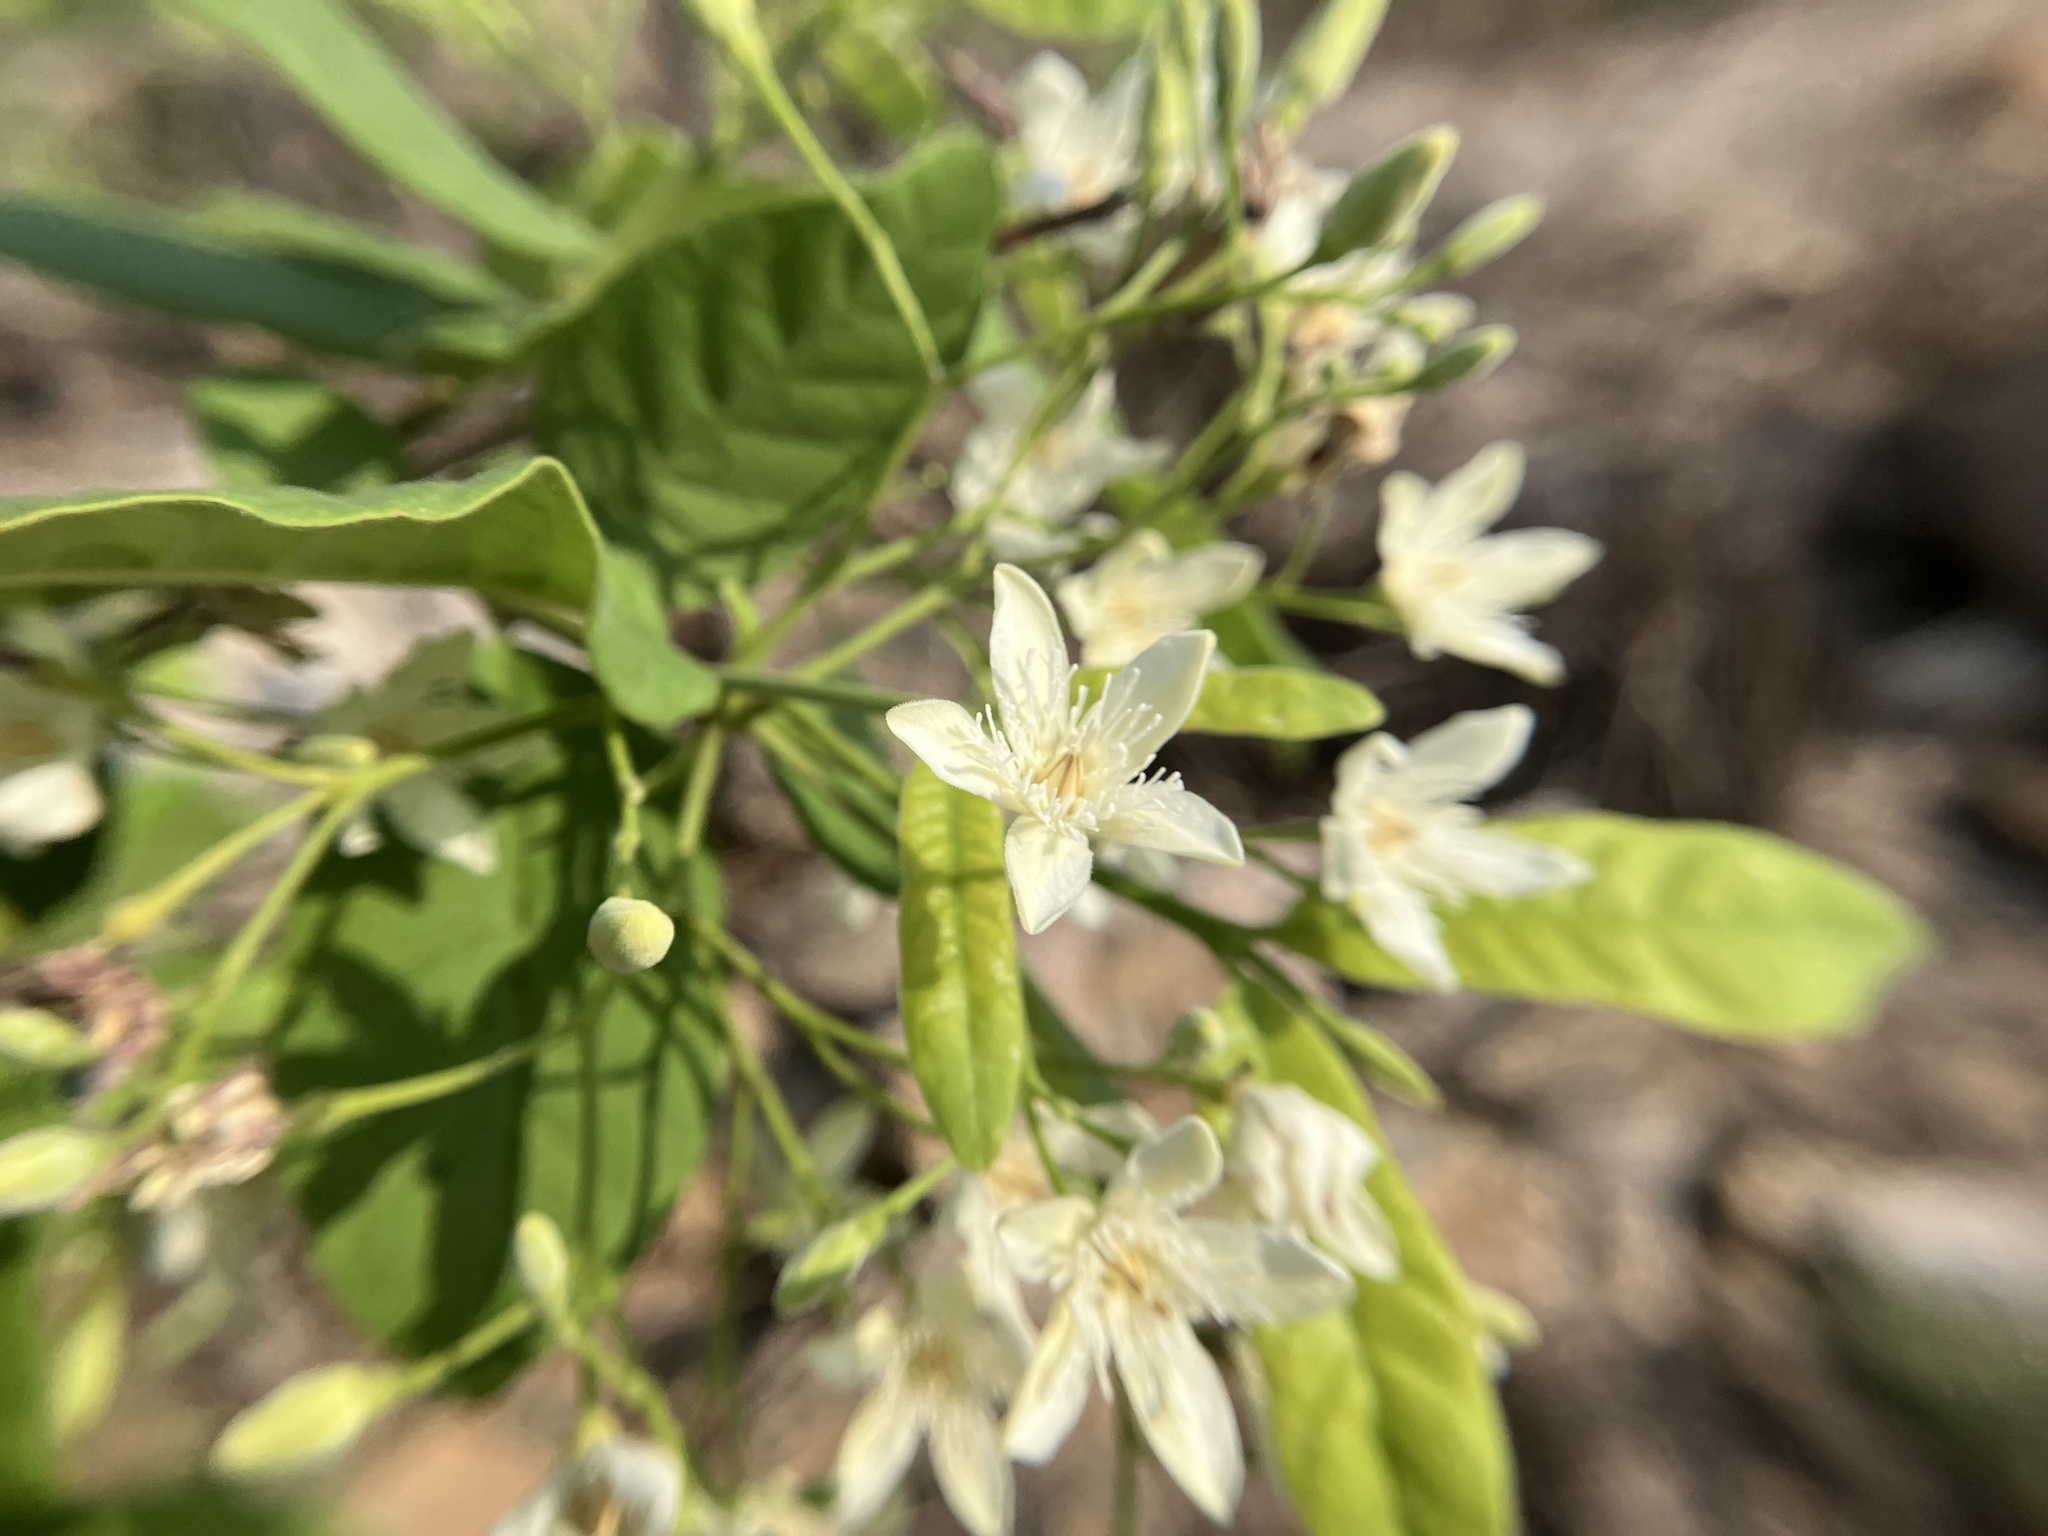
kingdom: Plantae
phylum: Tracheophyta
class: Magnoliopsida
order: Gentianales
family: Apocynaceae
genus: Wrightia
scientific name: Wrightia tinctoria
